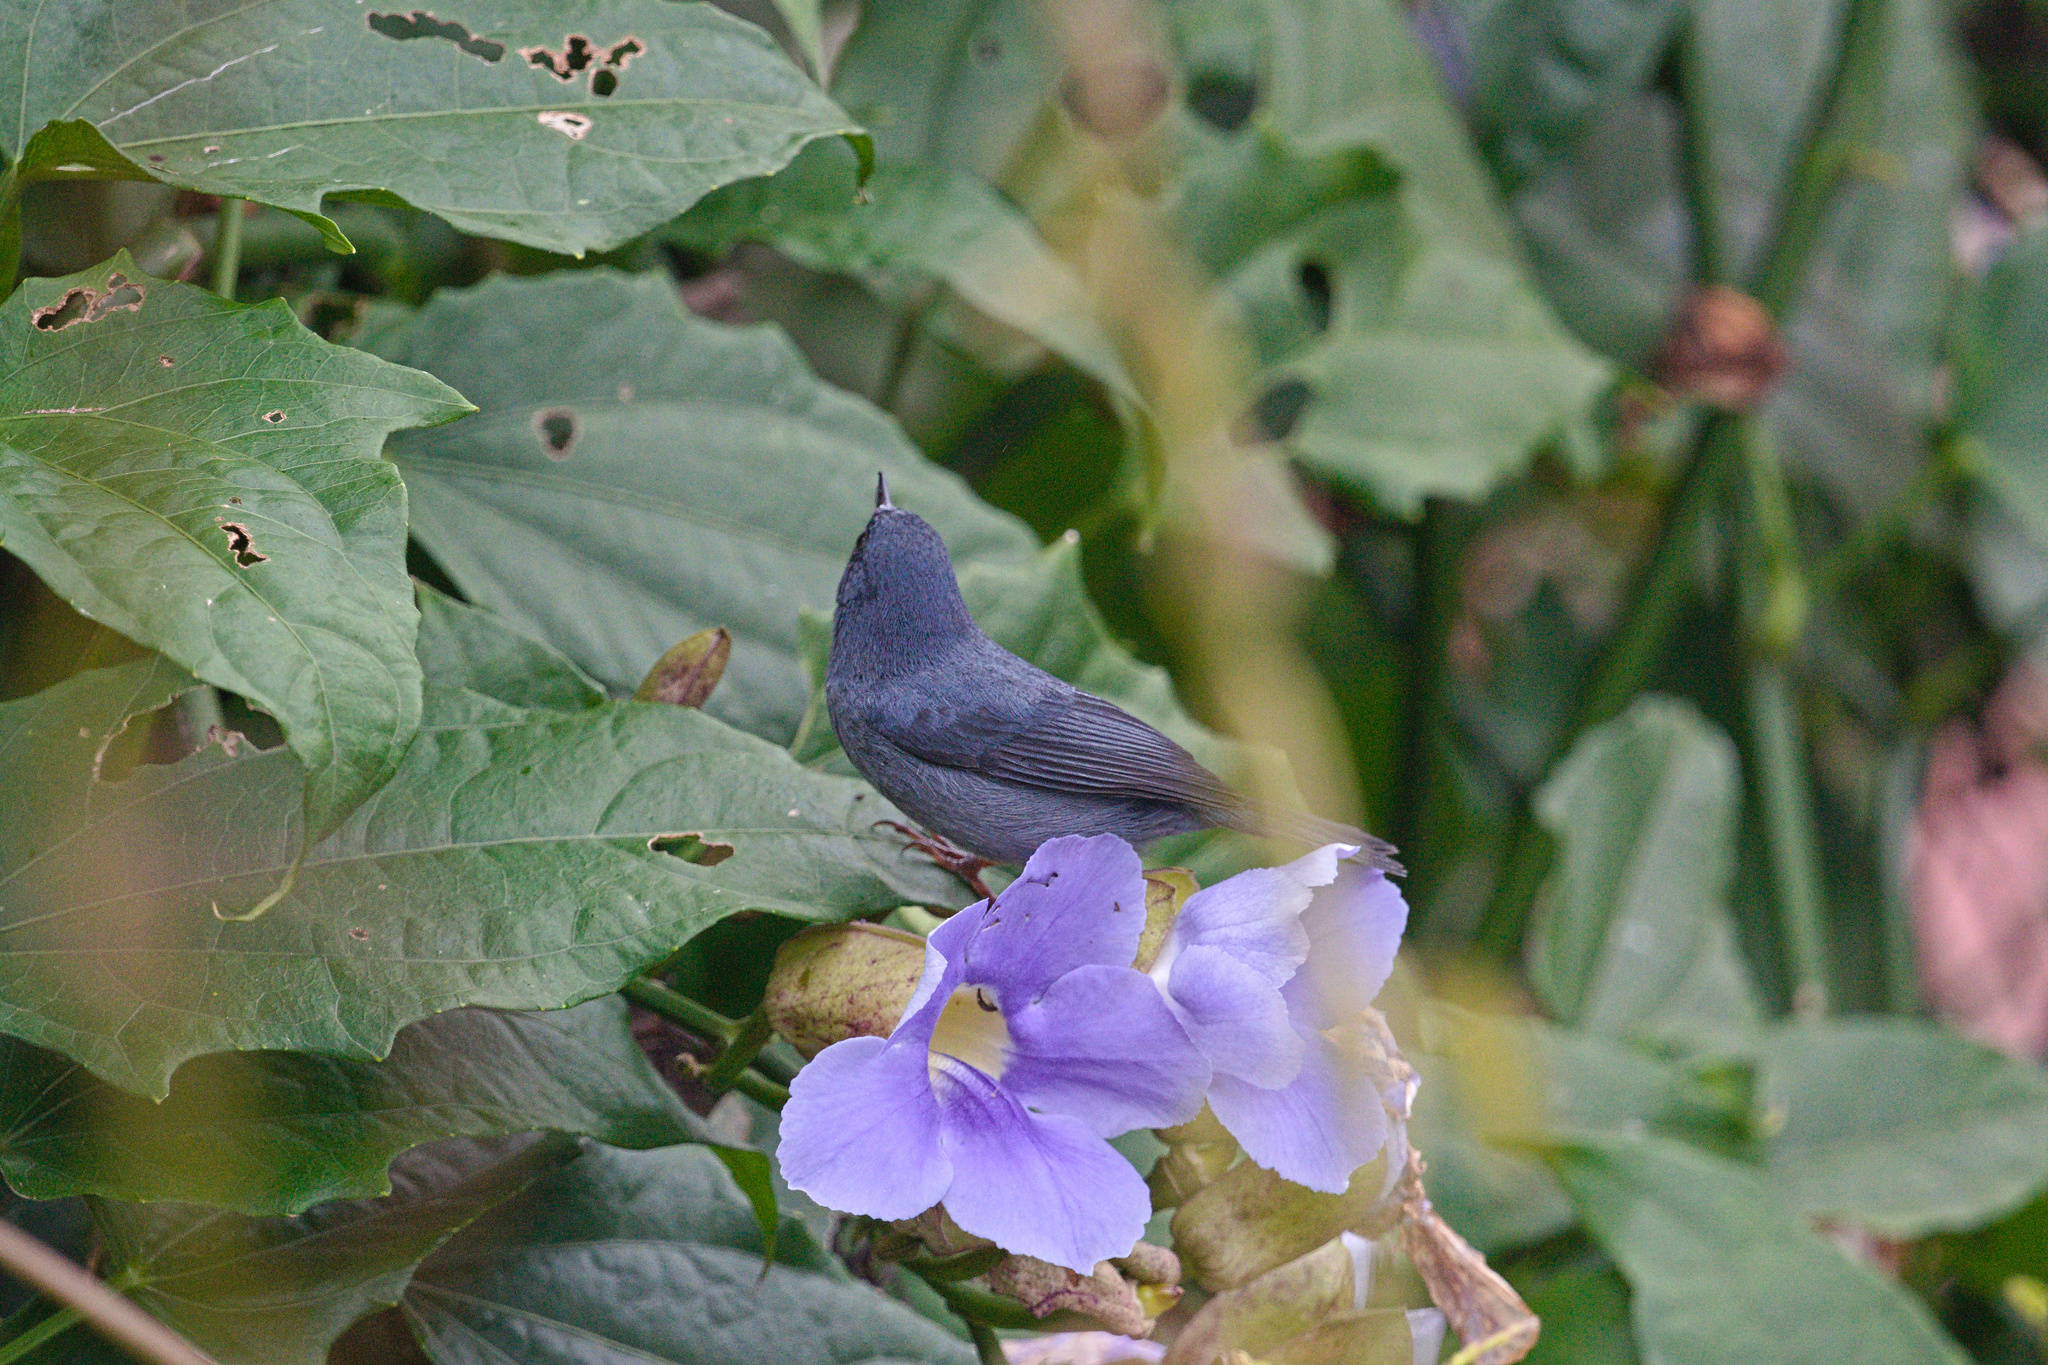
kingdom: Animalia
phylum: Chordata
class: Aves
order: Passeriformes
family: Thraupidae
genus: Diglossa
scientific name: Diglossa plumbea
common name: Slaty flowerpiercer
